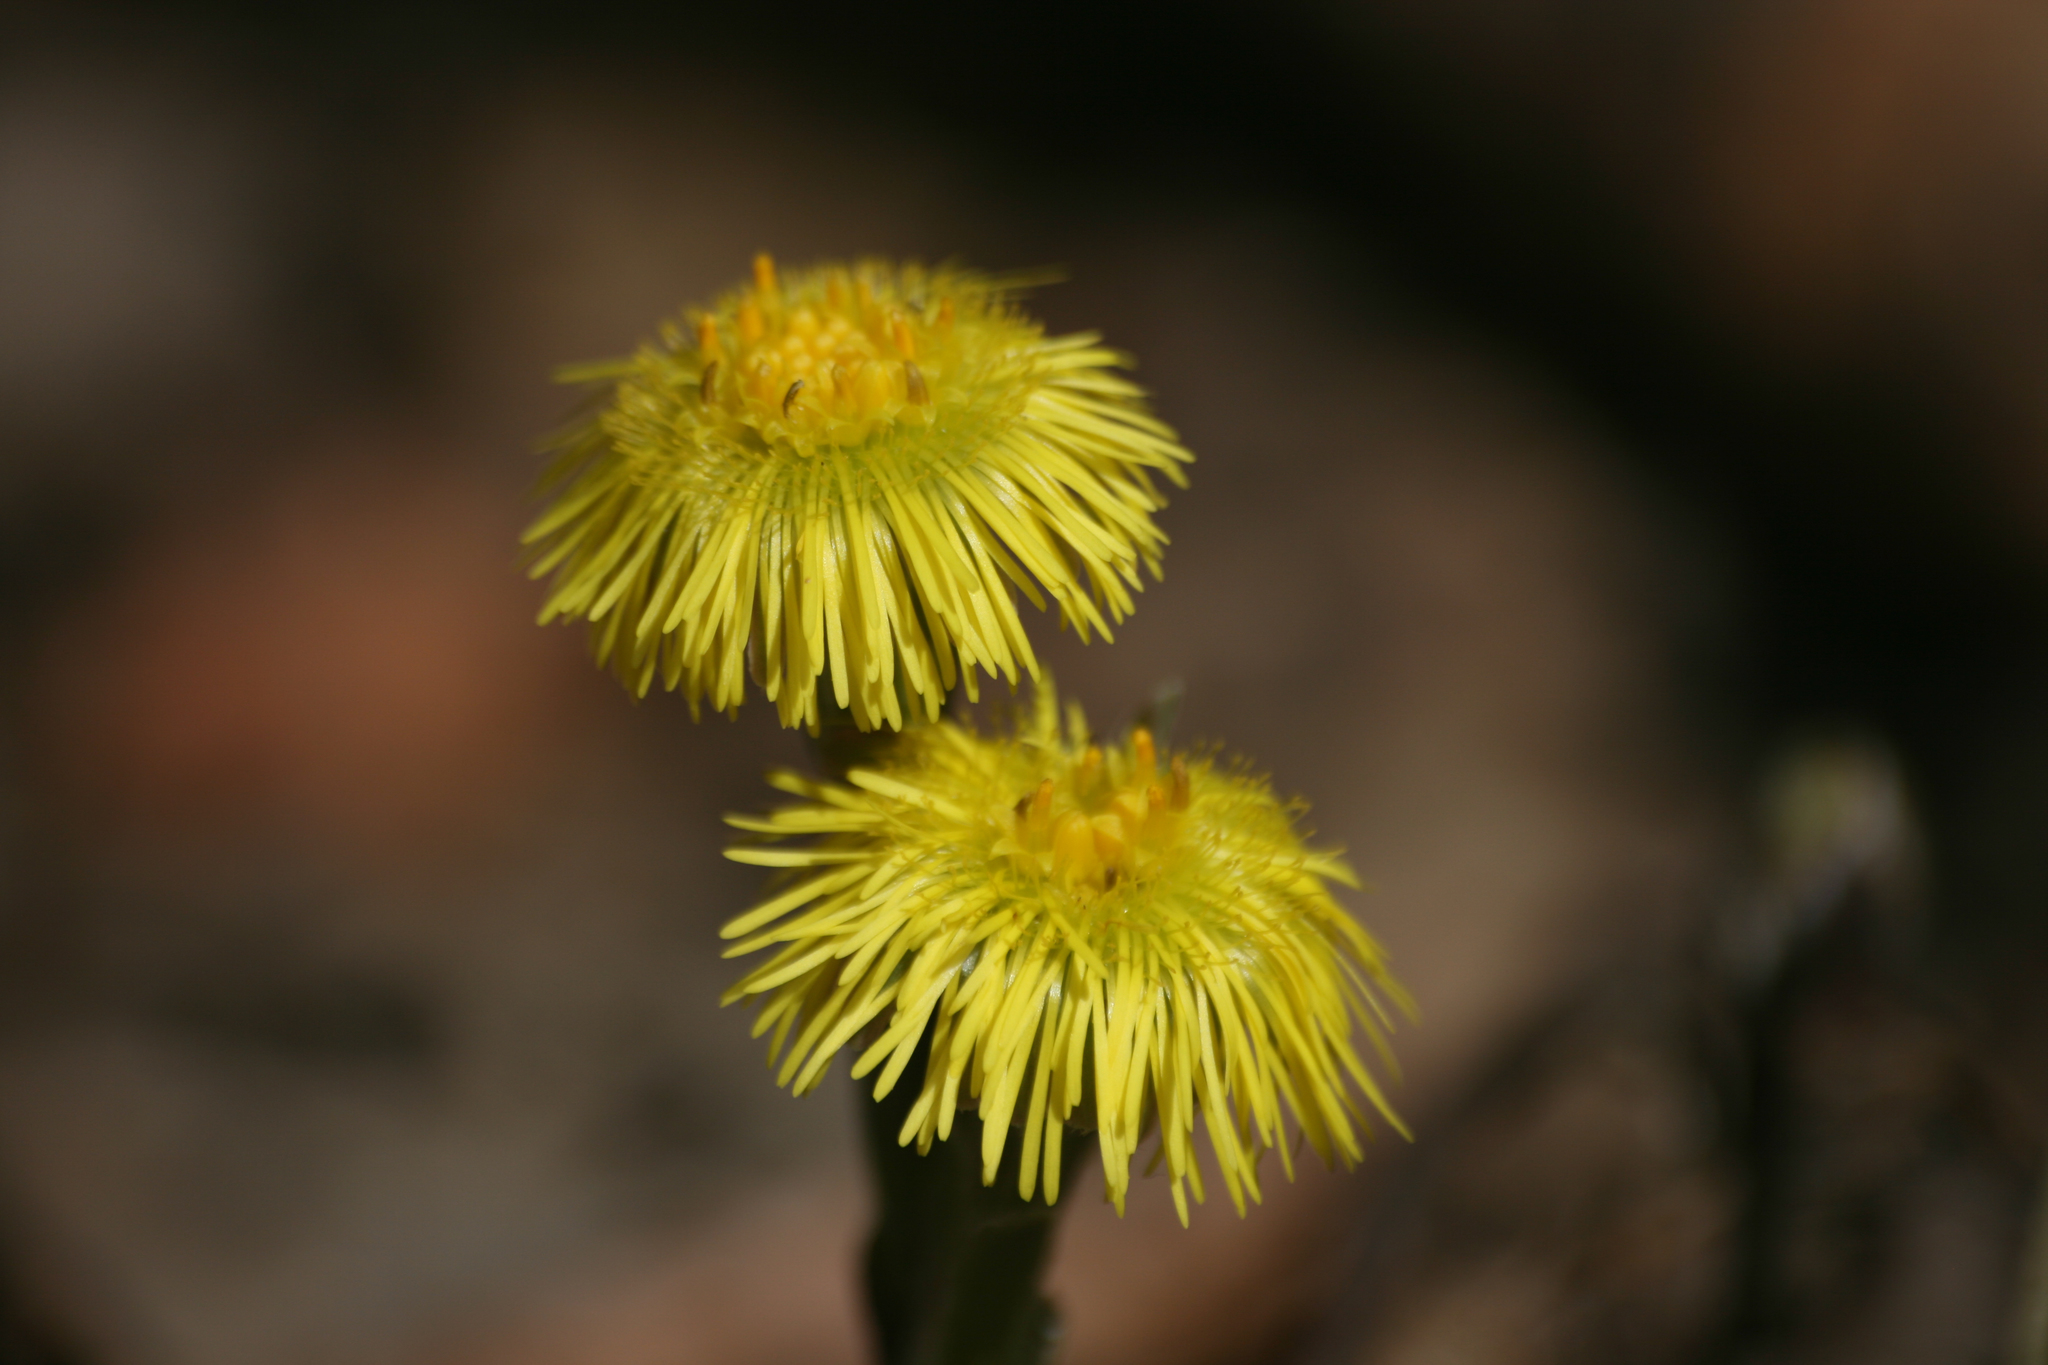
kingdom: Plantae
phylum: Tracheophyta
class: Magnoliopsida
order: Asterales
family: Asteraceae
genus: Tussilago
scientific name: Tussilago farfara
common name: Coltsfoot
